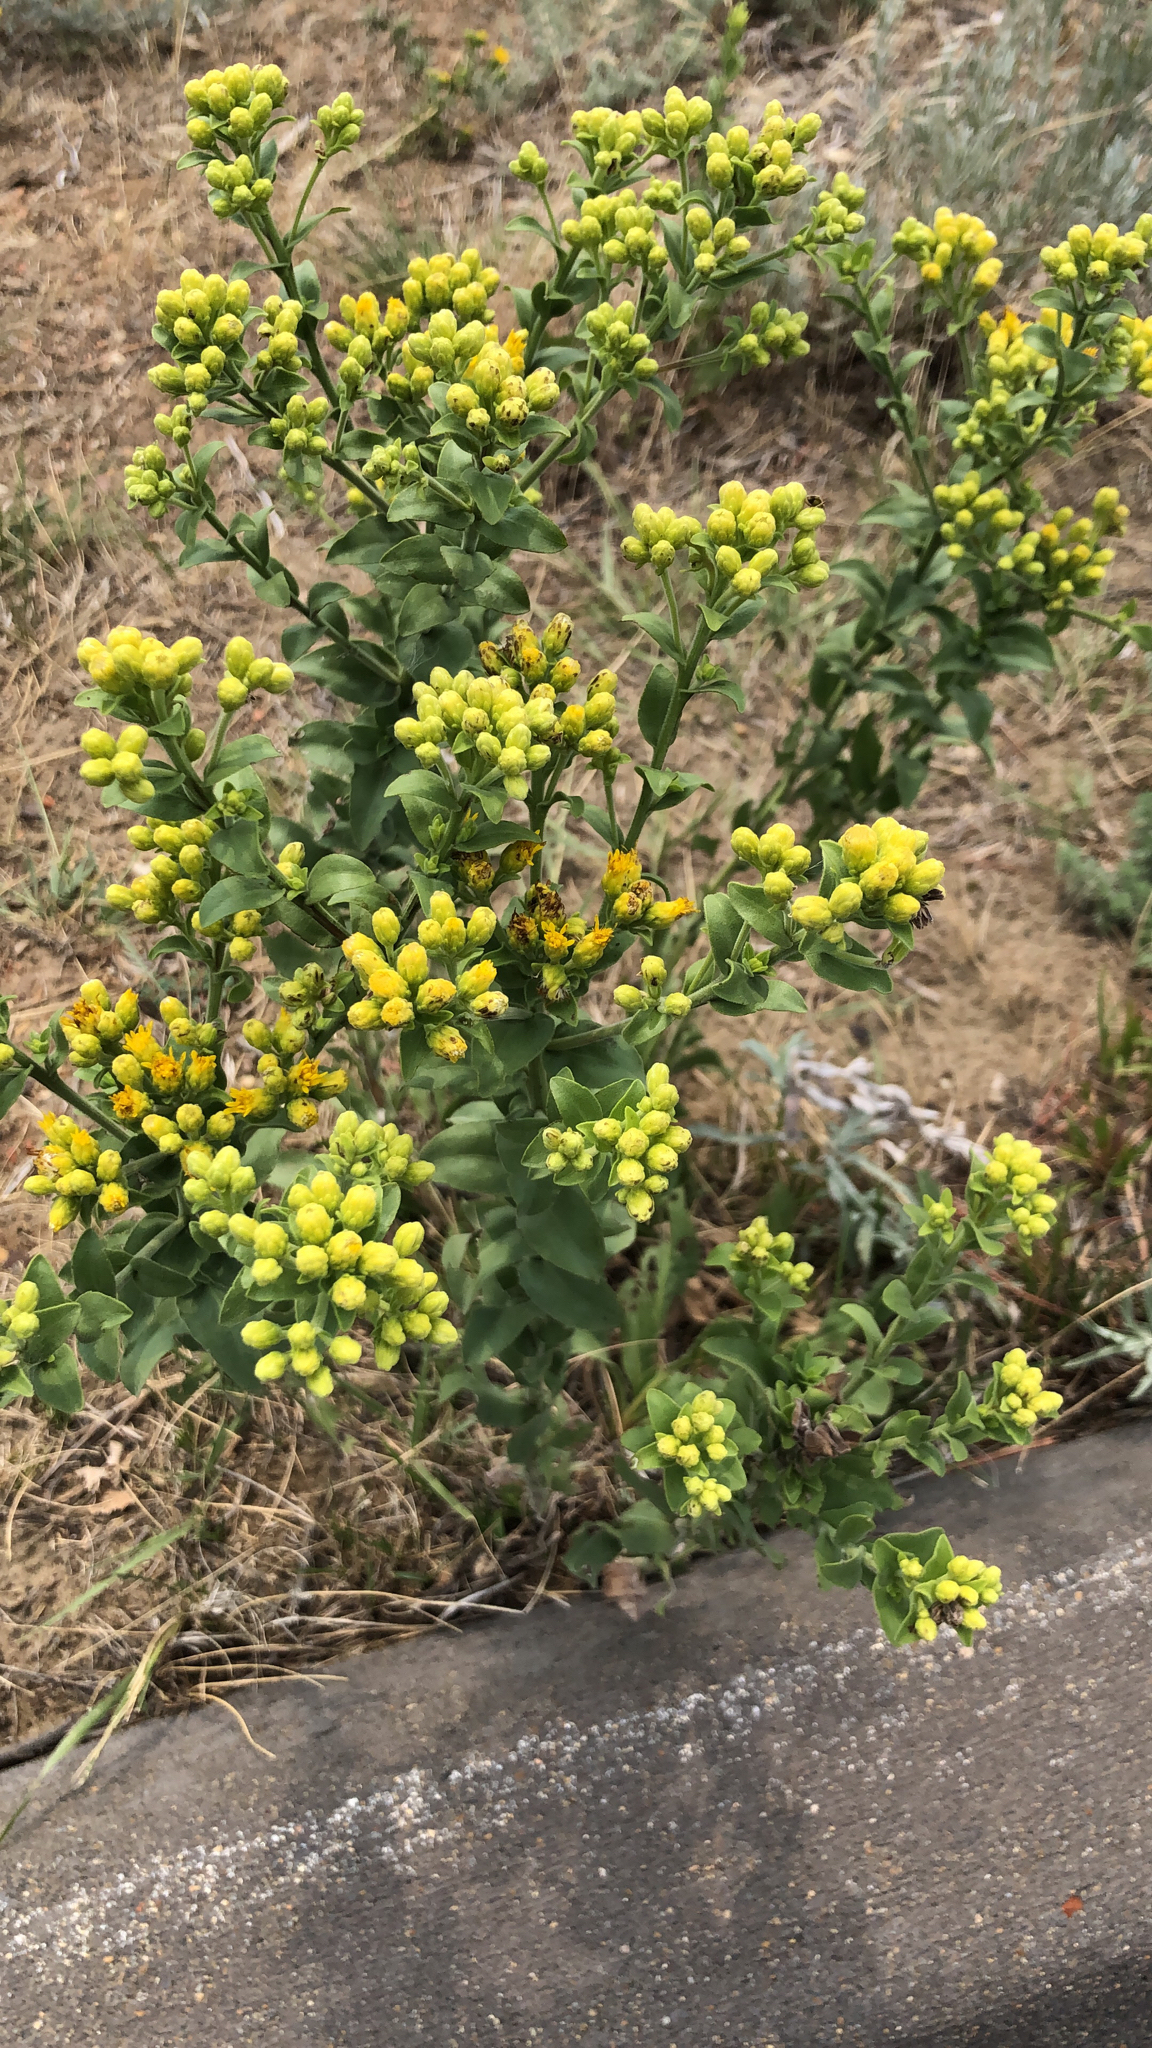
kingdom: Plantae
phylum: Tracheophyta
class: Magnoliopsida
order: Asterales
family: Asteraceae
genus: Solidago
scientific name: Solidago rigida
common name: Rigid goldenrod
